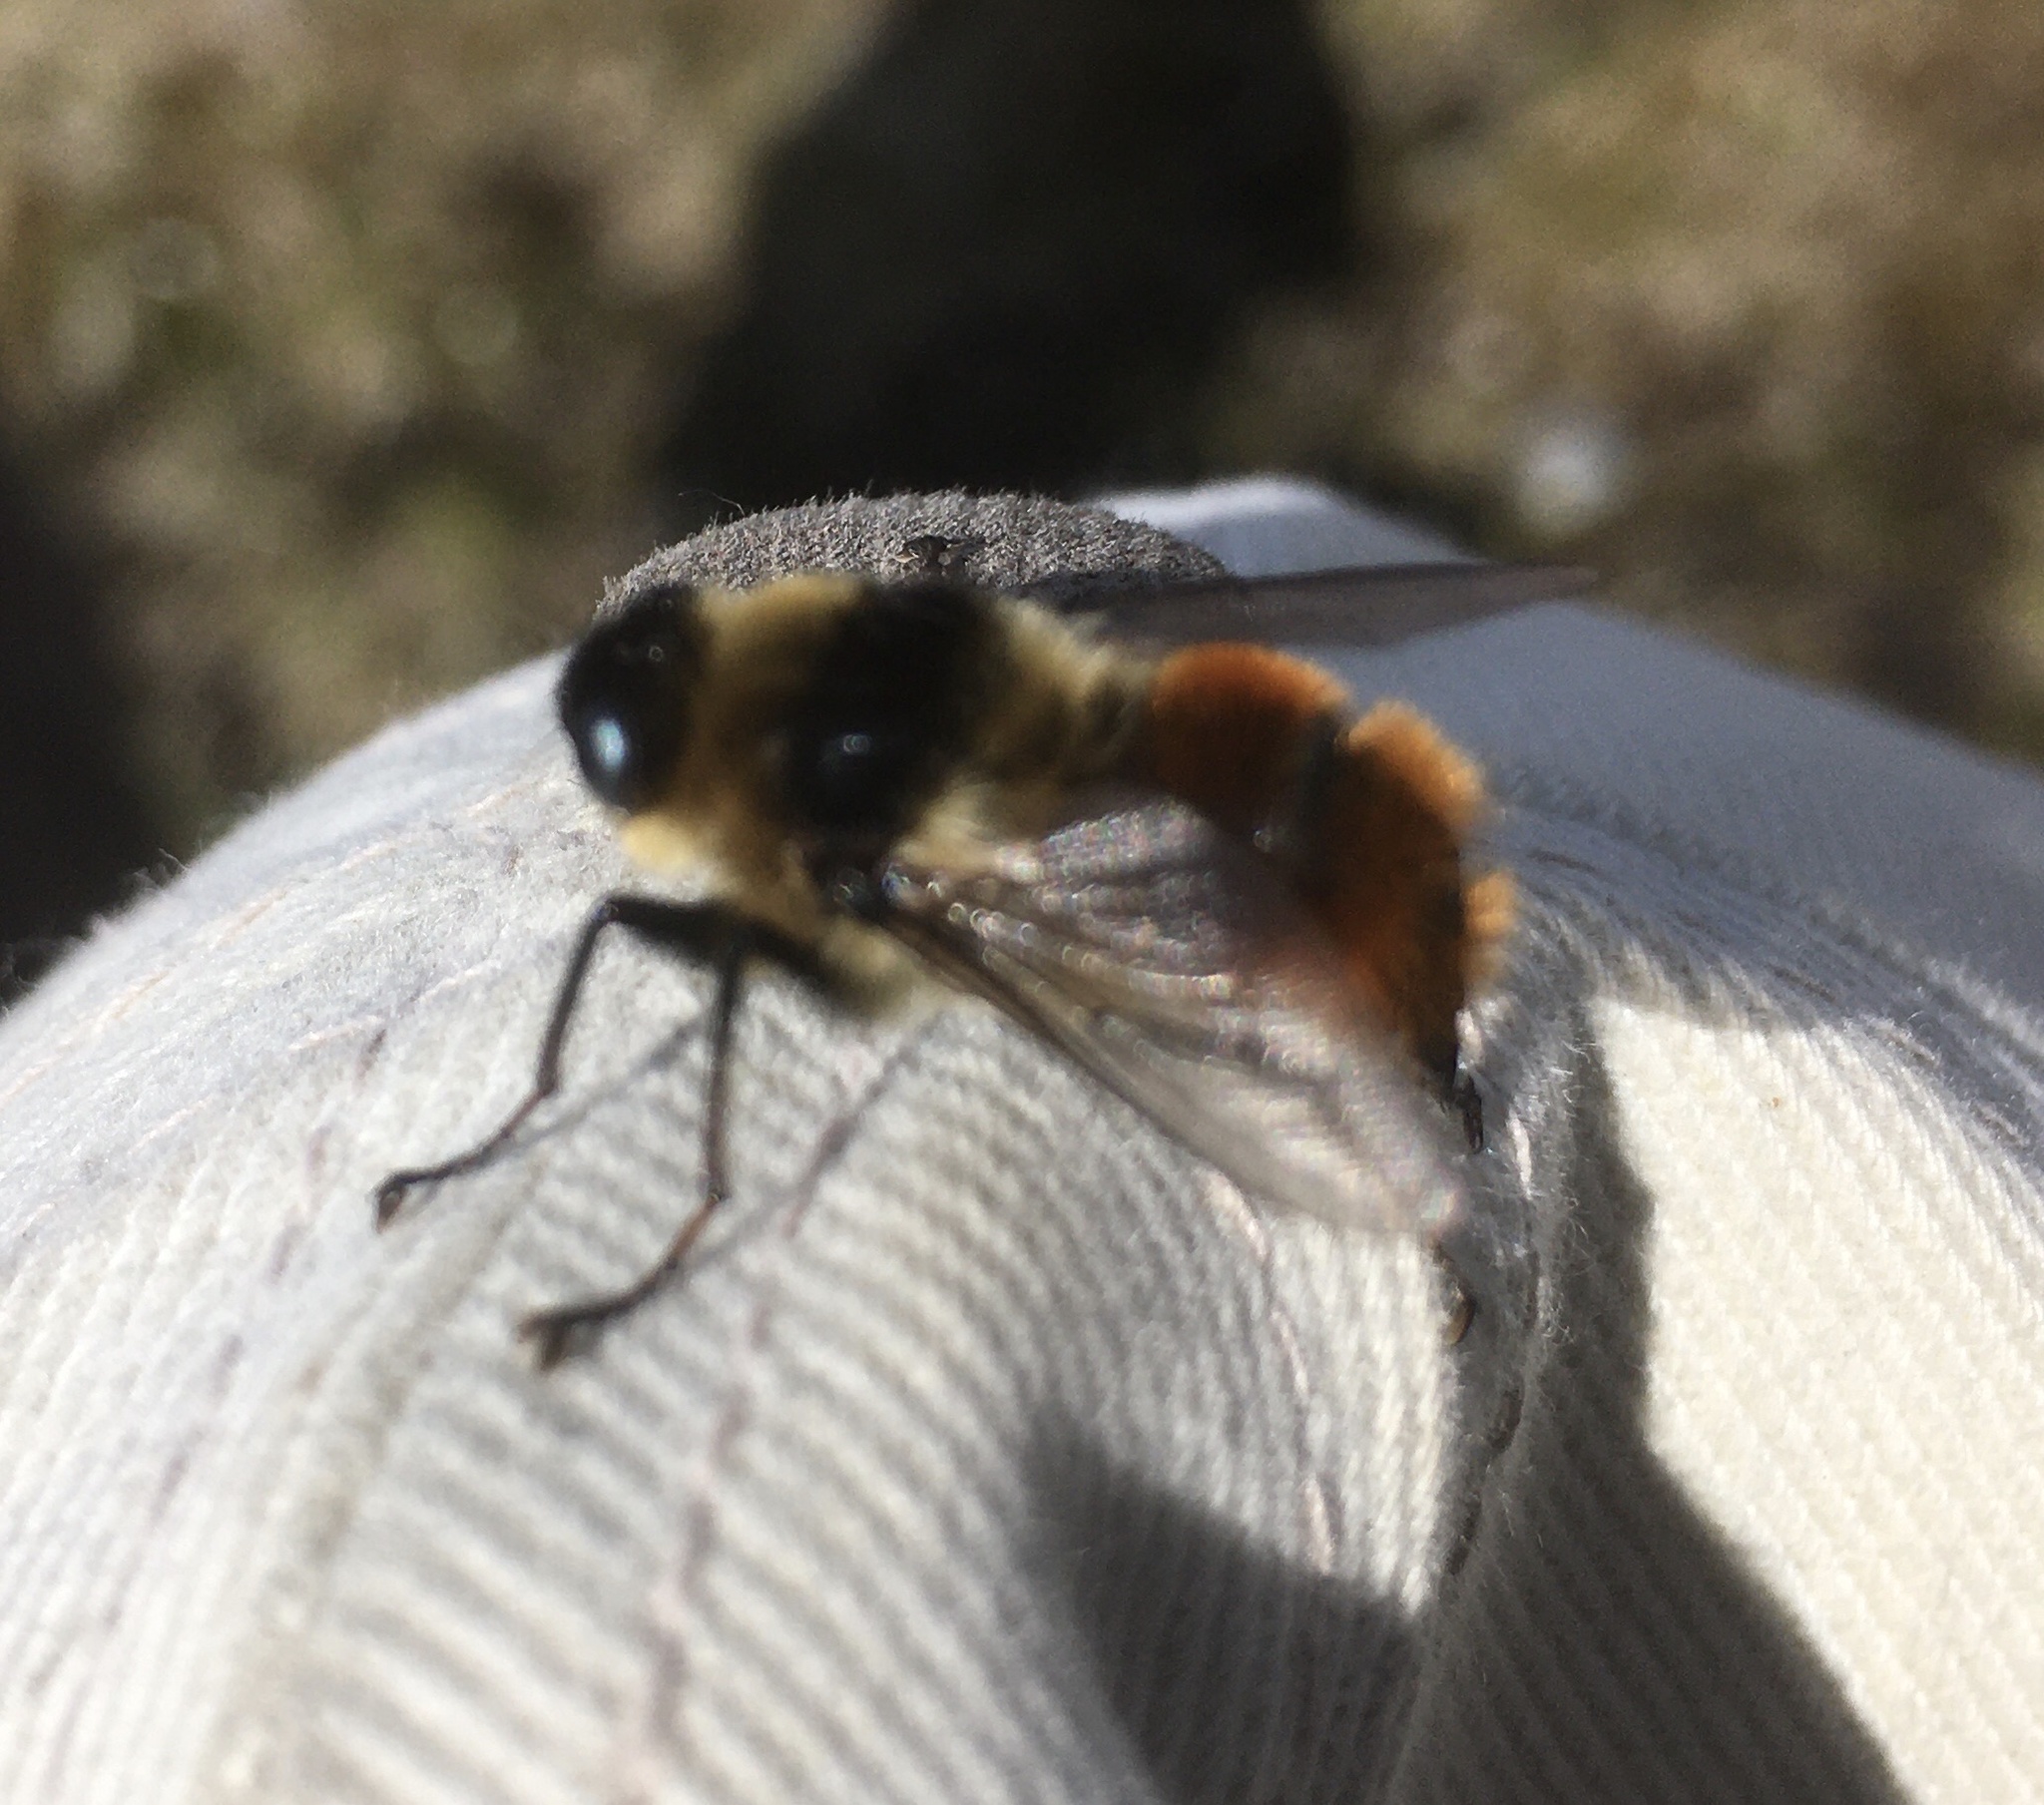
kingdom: Animalia
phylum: Arthropoda
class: Insecta
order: Diptera
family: Oestridae
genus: Hypoderma
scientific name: Hypoderma tarandi
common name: Botfly
